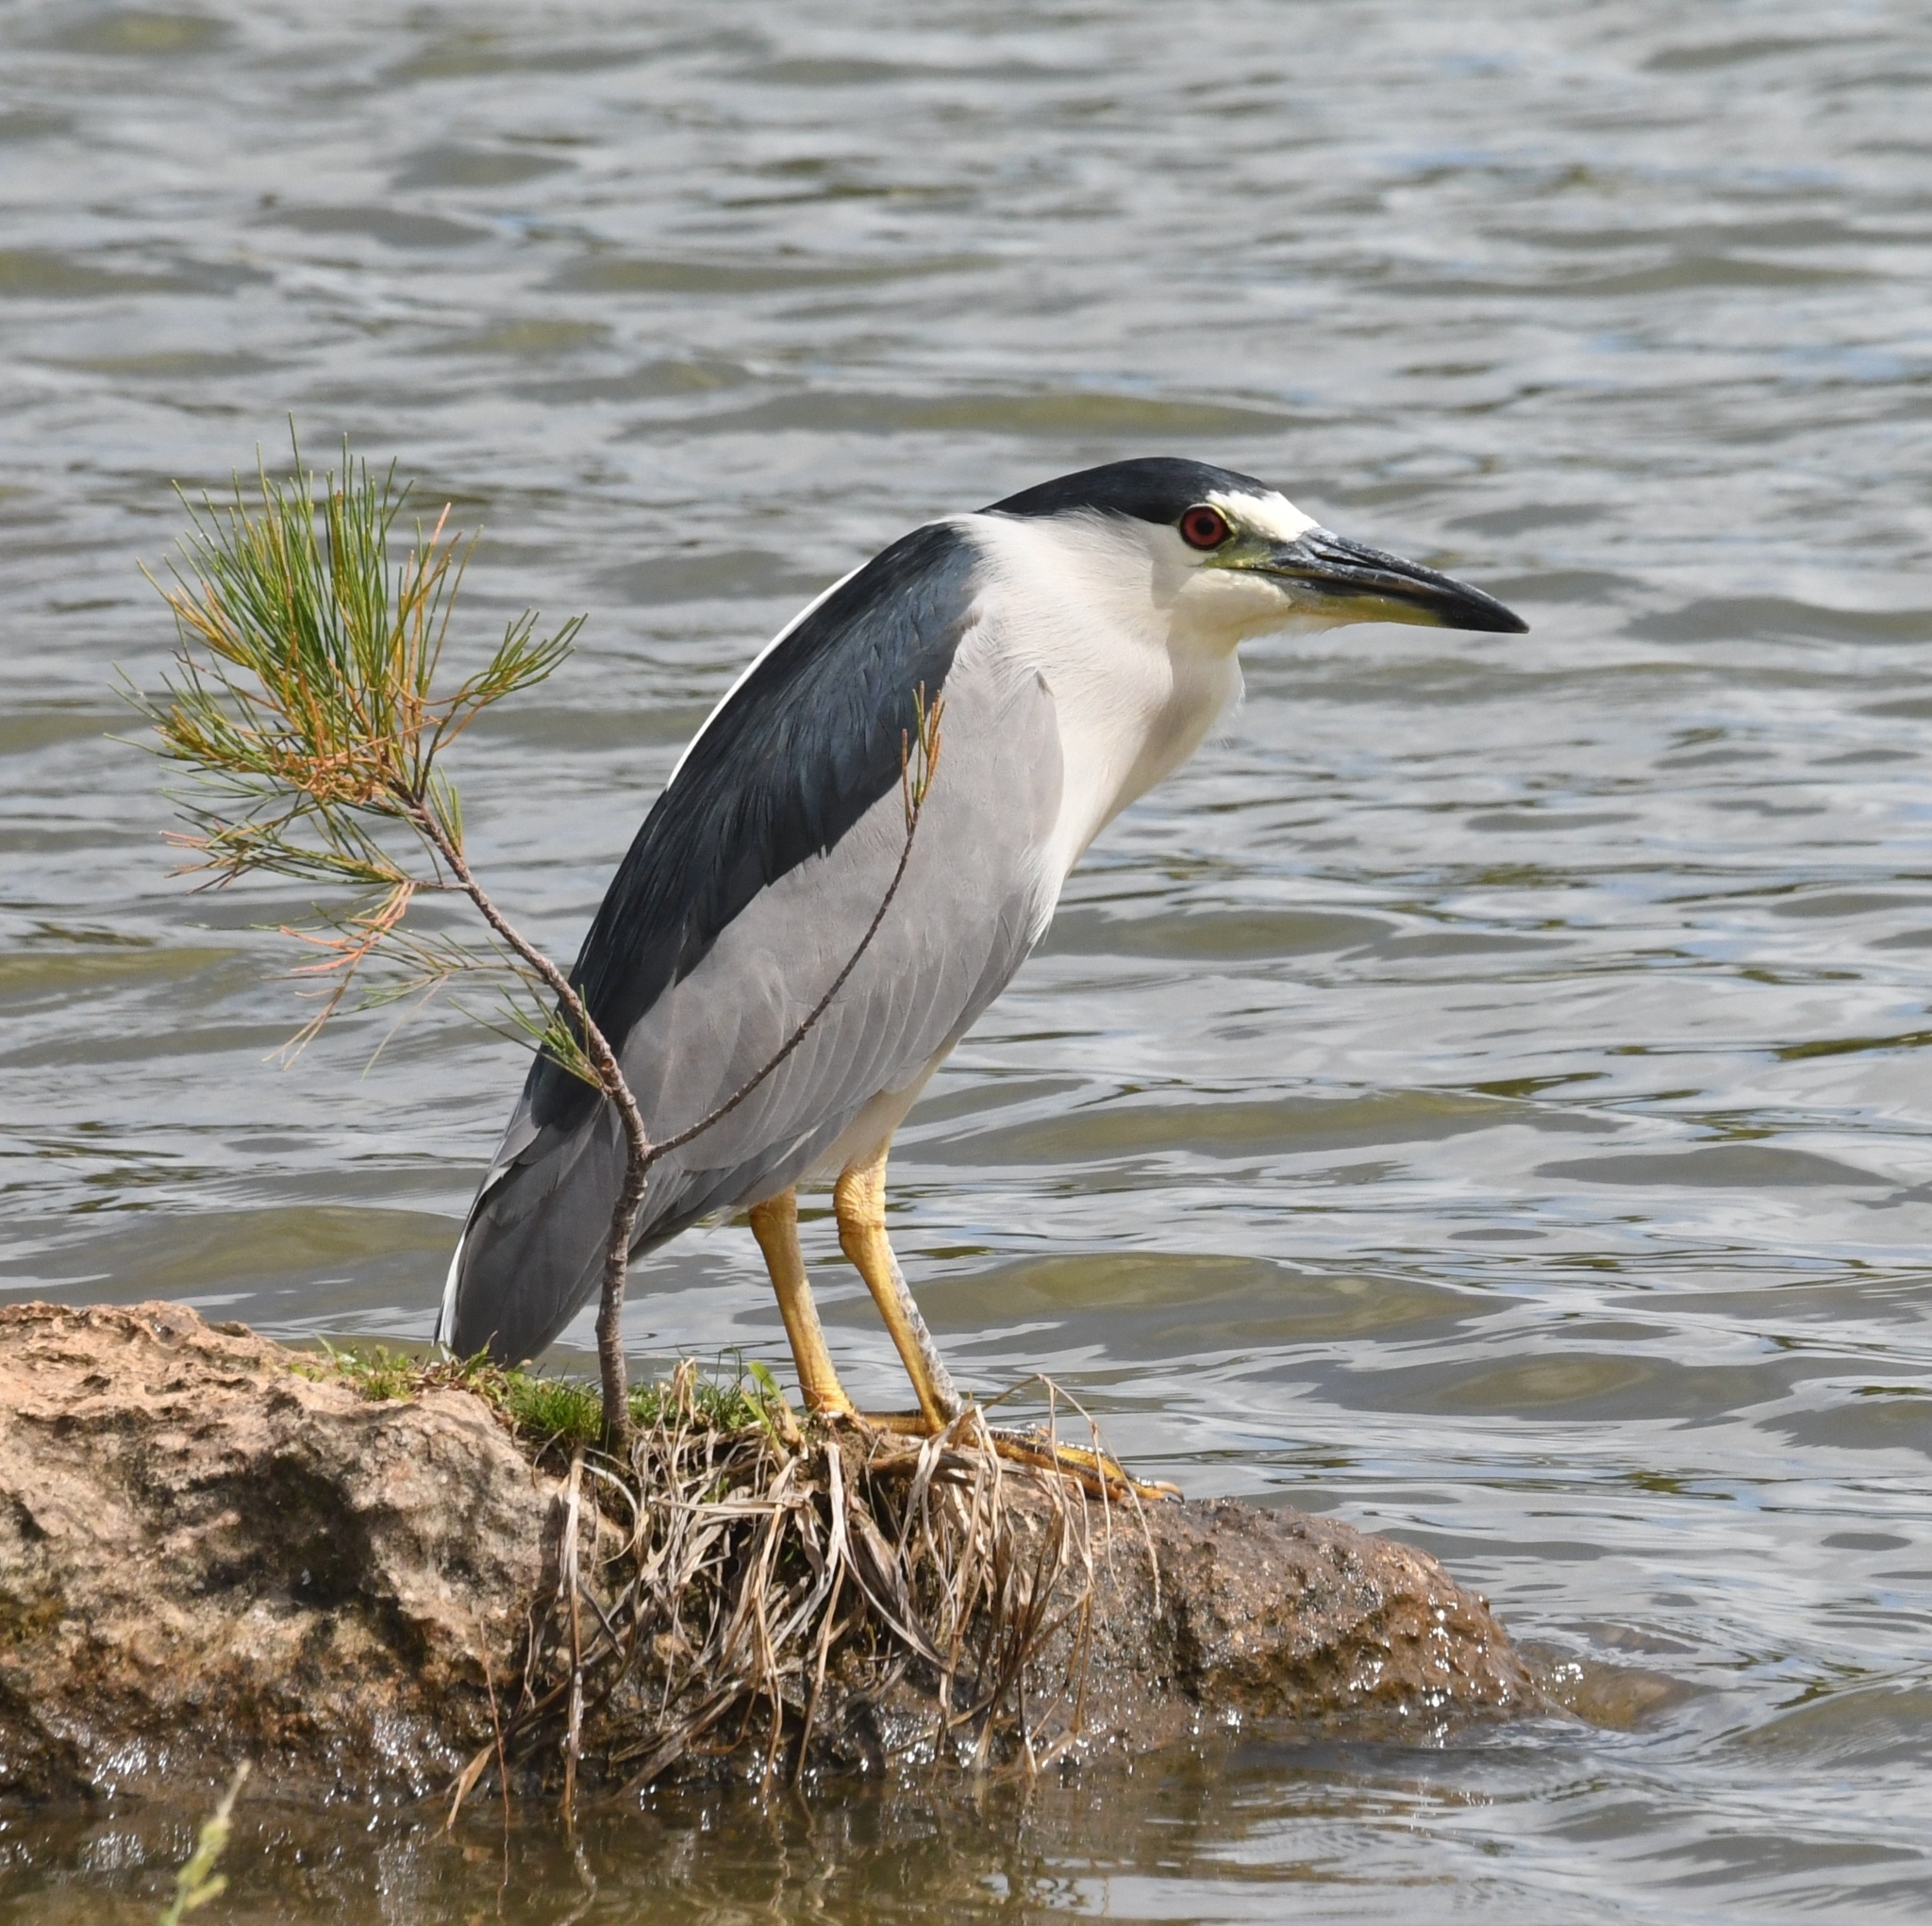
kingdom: Animalia
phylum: Chordata
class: Aves
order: Pelecaniformes
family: Ardeidae
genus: Nycticorax
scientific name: Nycticorax nycticorax
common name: Black-crowned night heron
